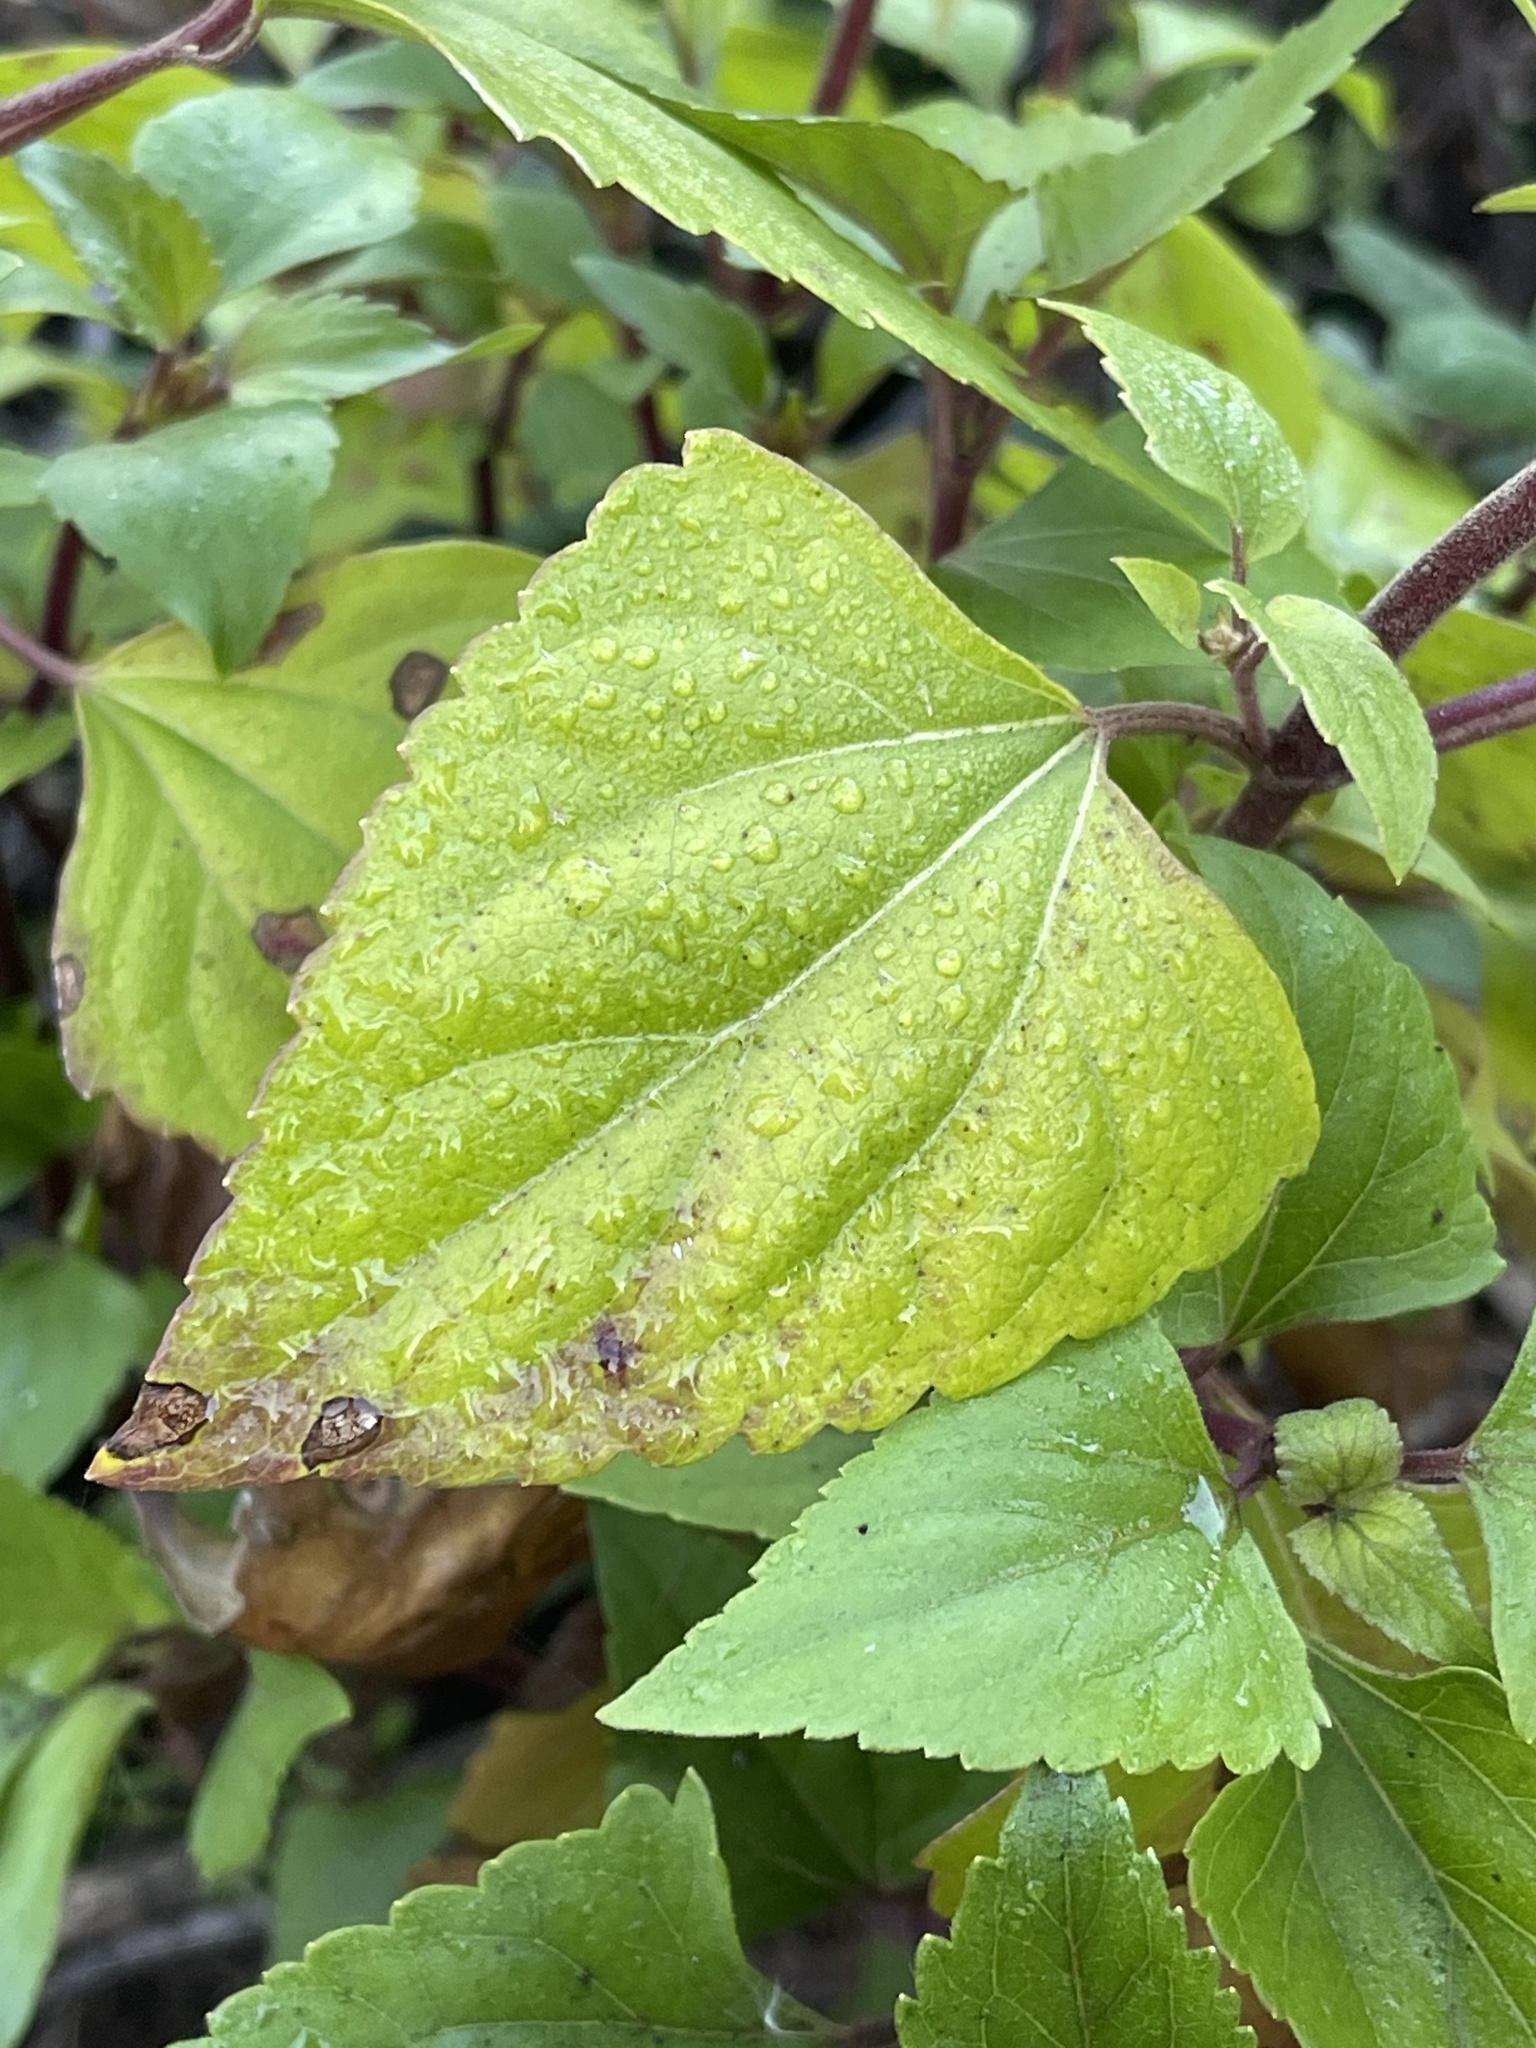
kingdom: Plantae
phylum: Tracheophyta
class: Magnoliopsida
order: Asterales
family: Asteraceae
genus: Ageratina
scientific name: Ageratina adenophora
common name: Sticky snakeroot
